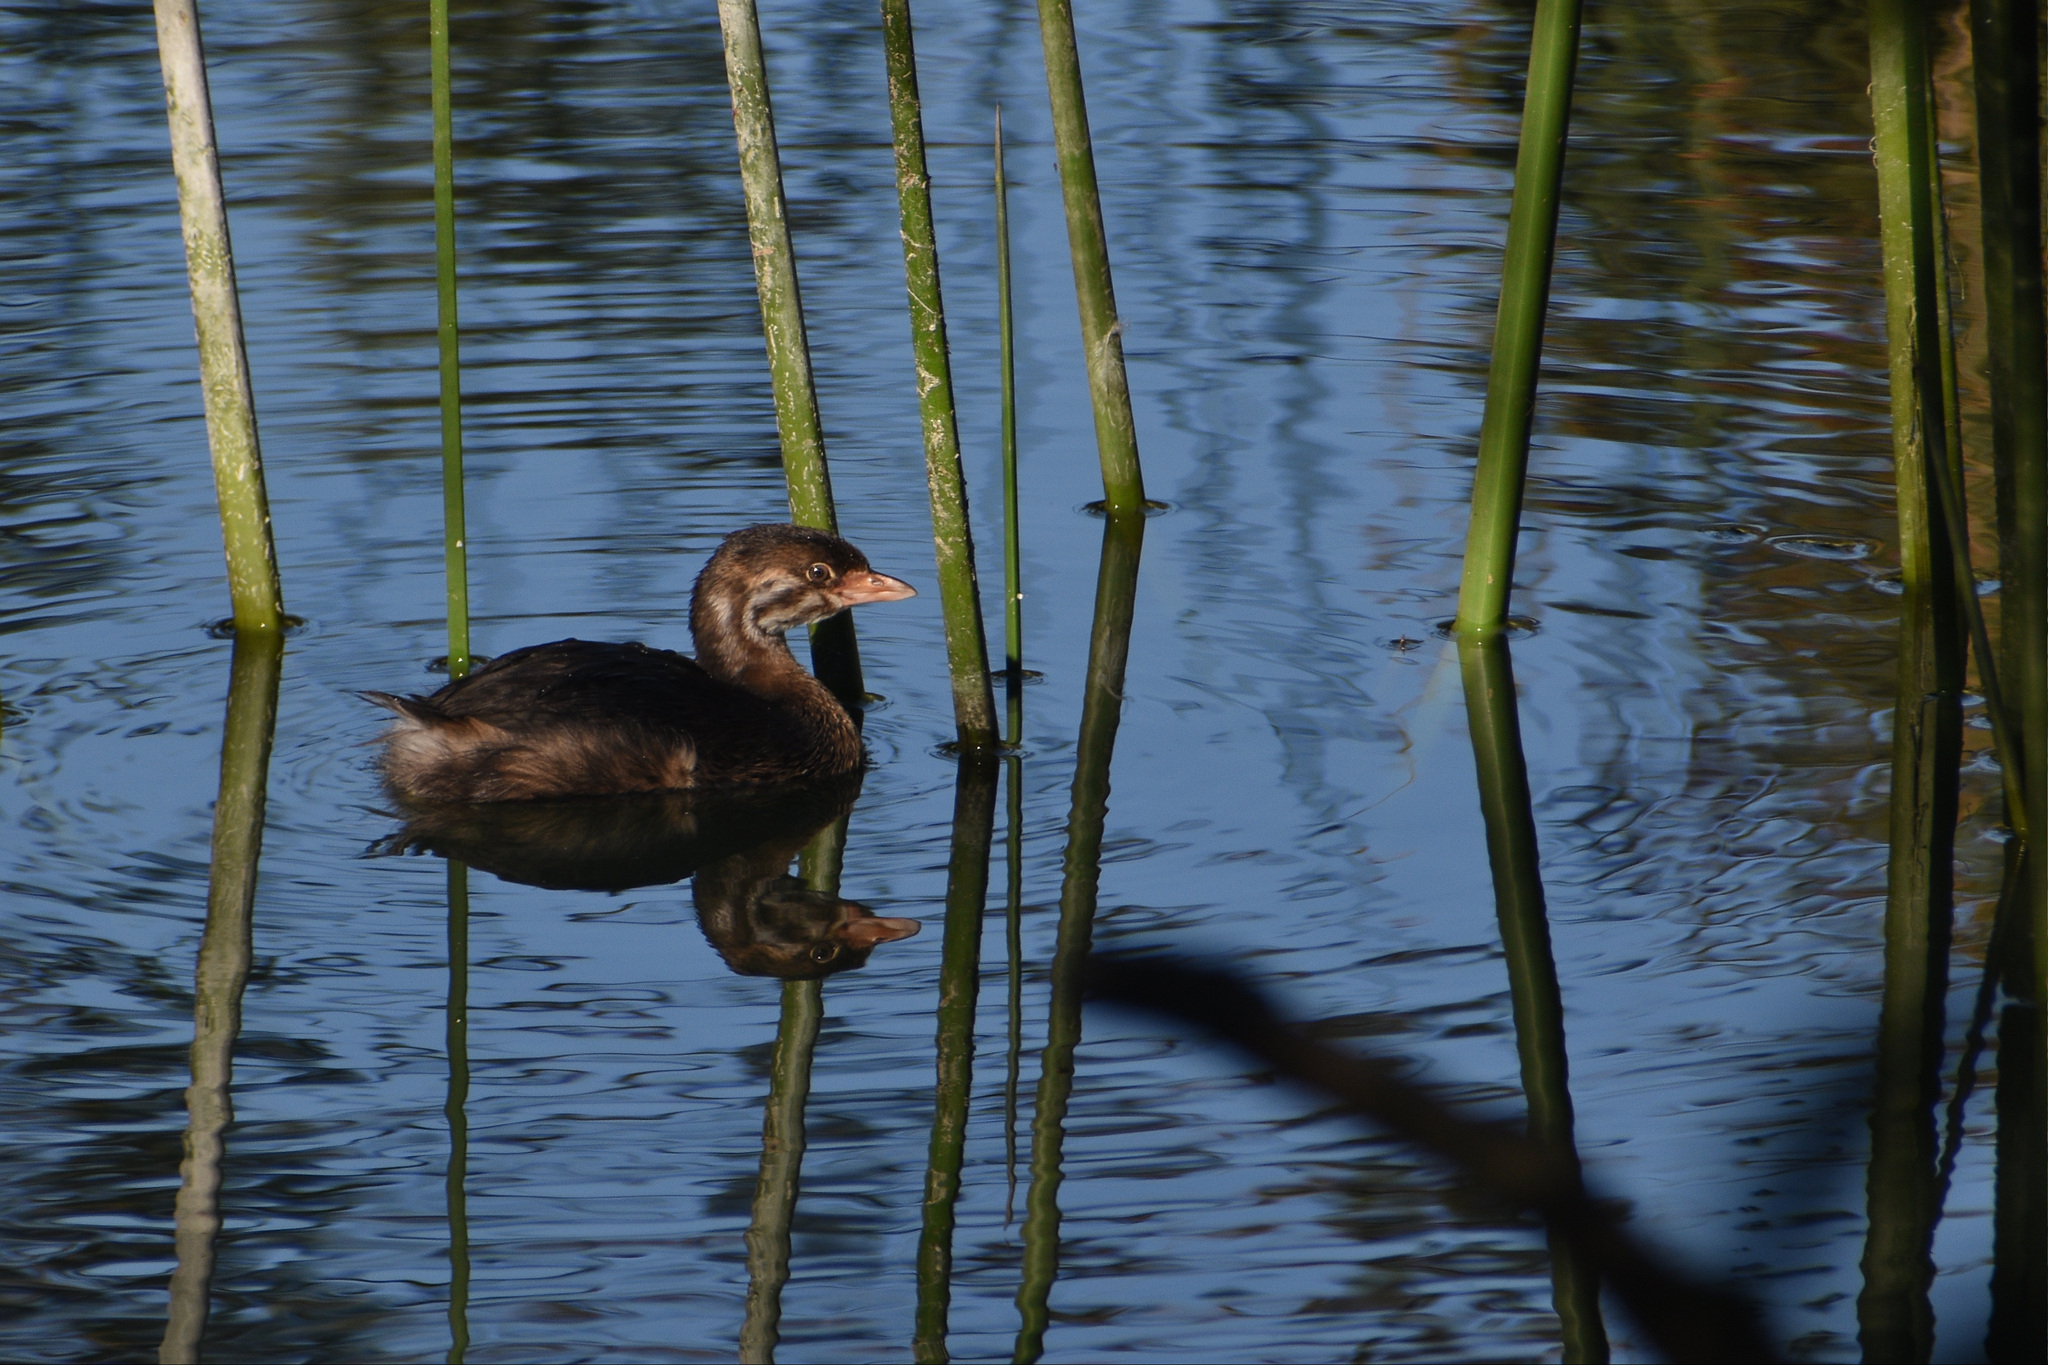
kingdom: Animalia
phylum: Chordata
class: Aves
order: Podicipediformes
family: Podicipedidae
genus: Podilymbus
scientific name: Podilymbus podiceps
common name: Pied-billed grebe
